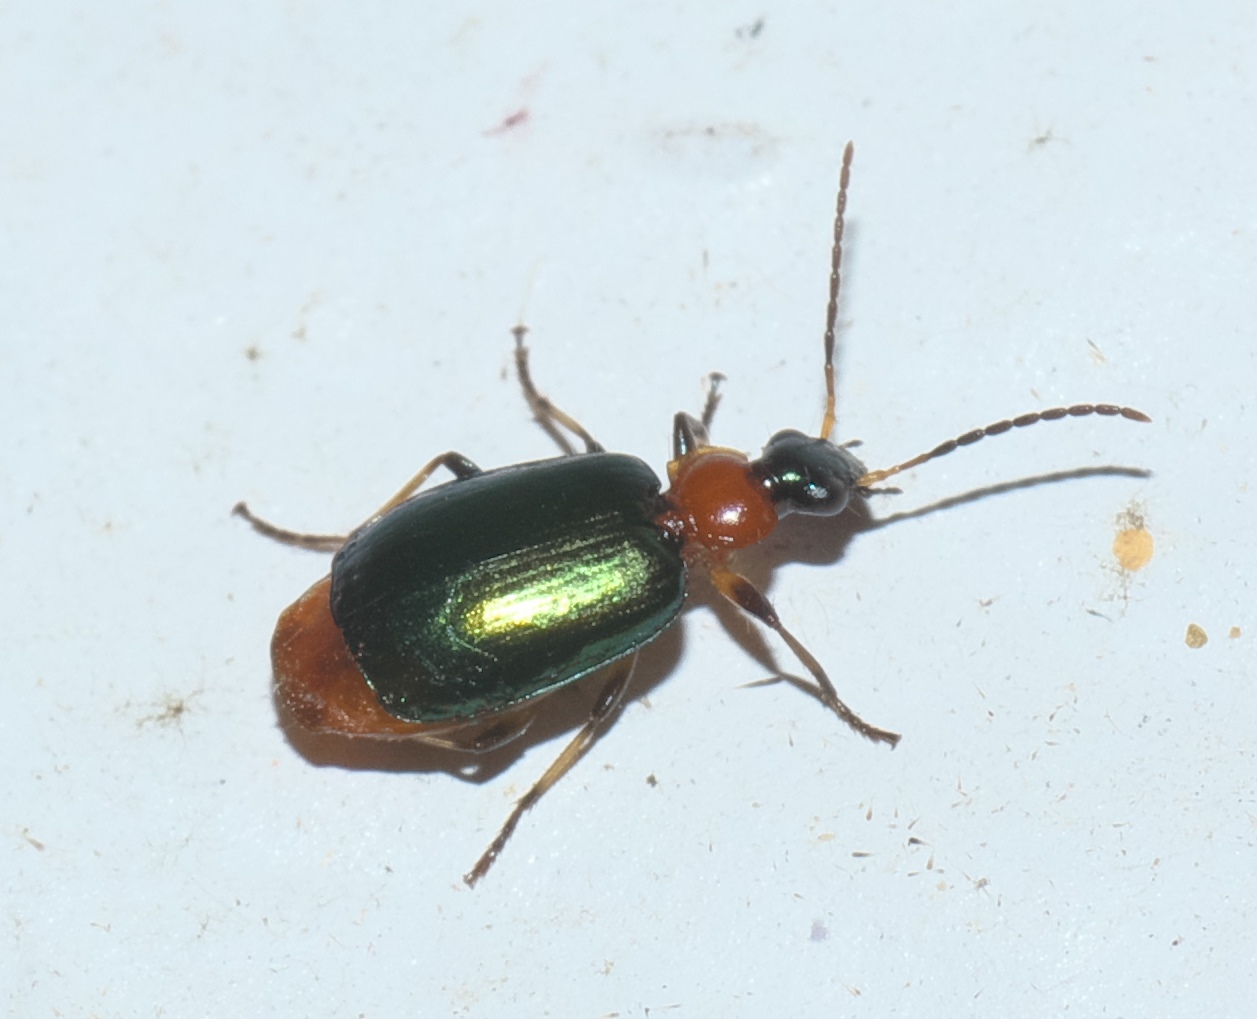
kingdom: Animalia
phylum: Arthropoda
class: Insecta
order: Coleoptera
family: Carabidae
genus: Lebia
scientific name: Lebia viridipennis
